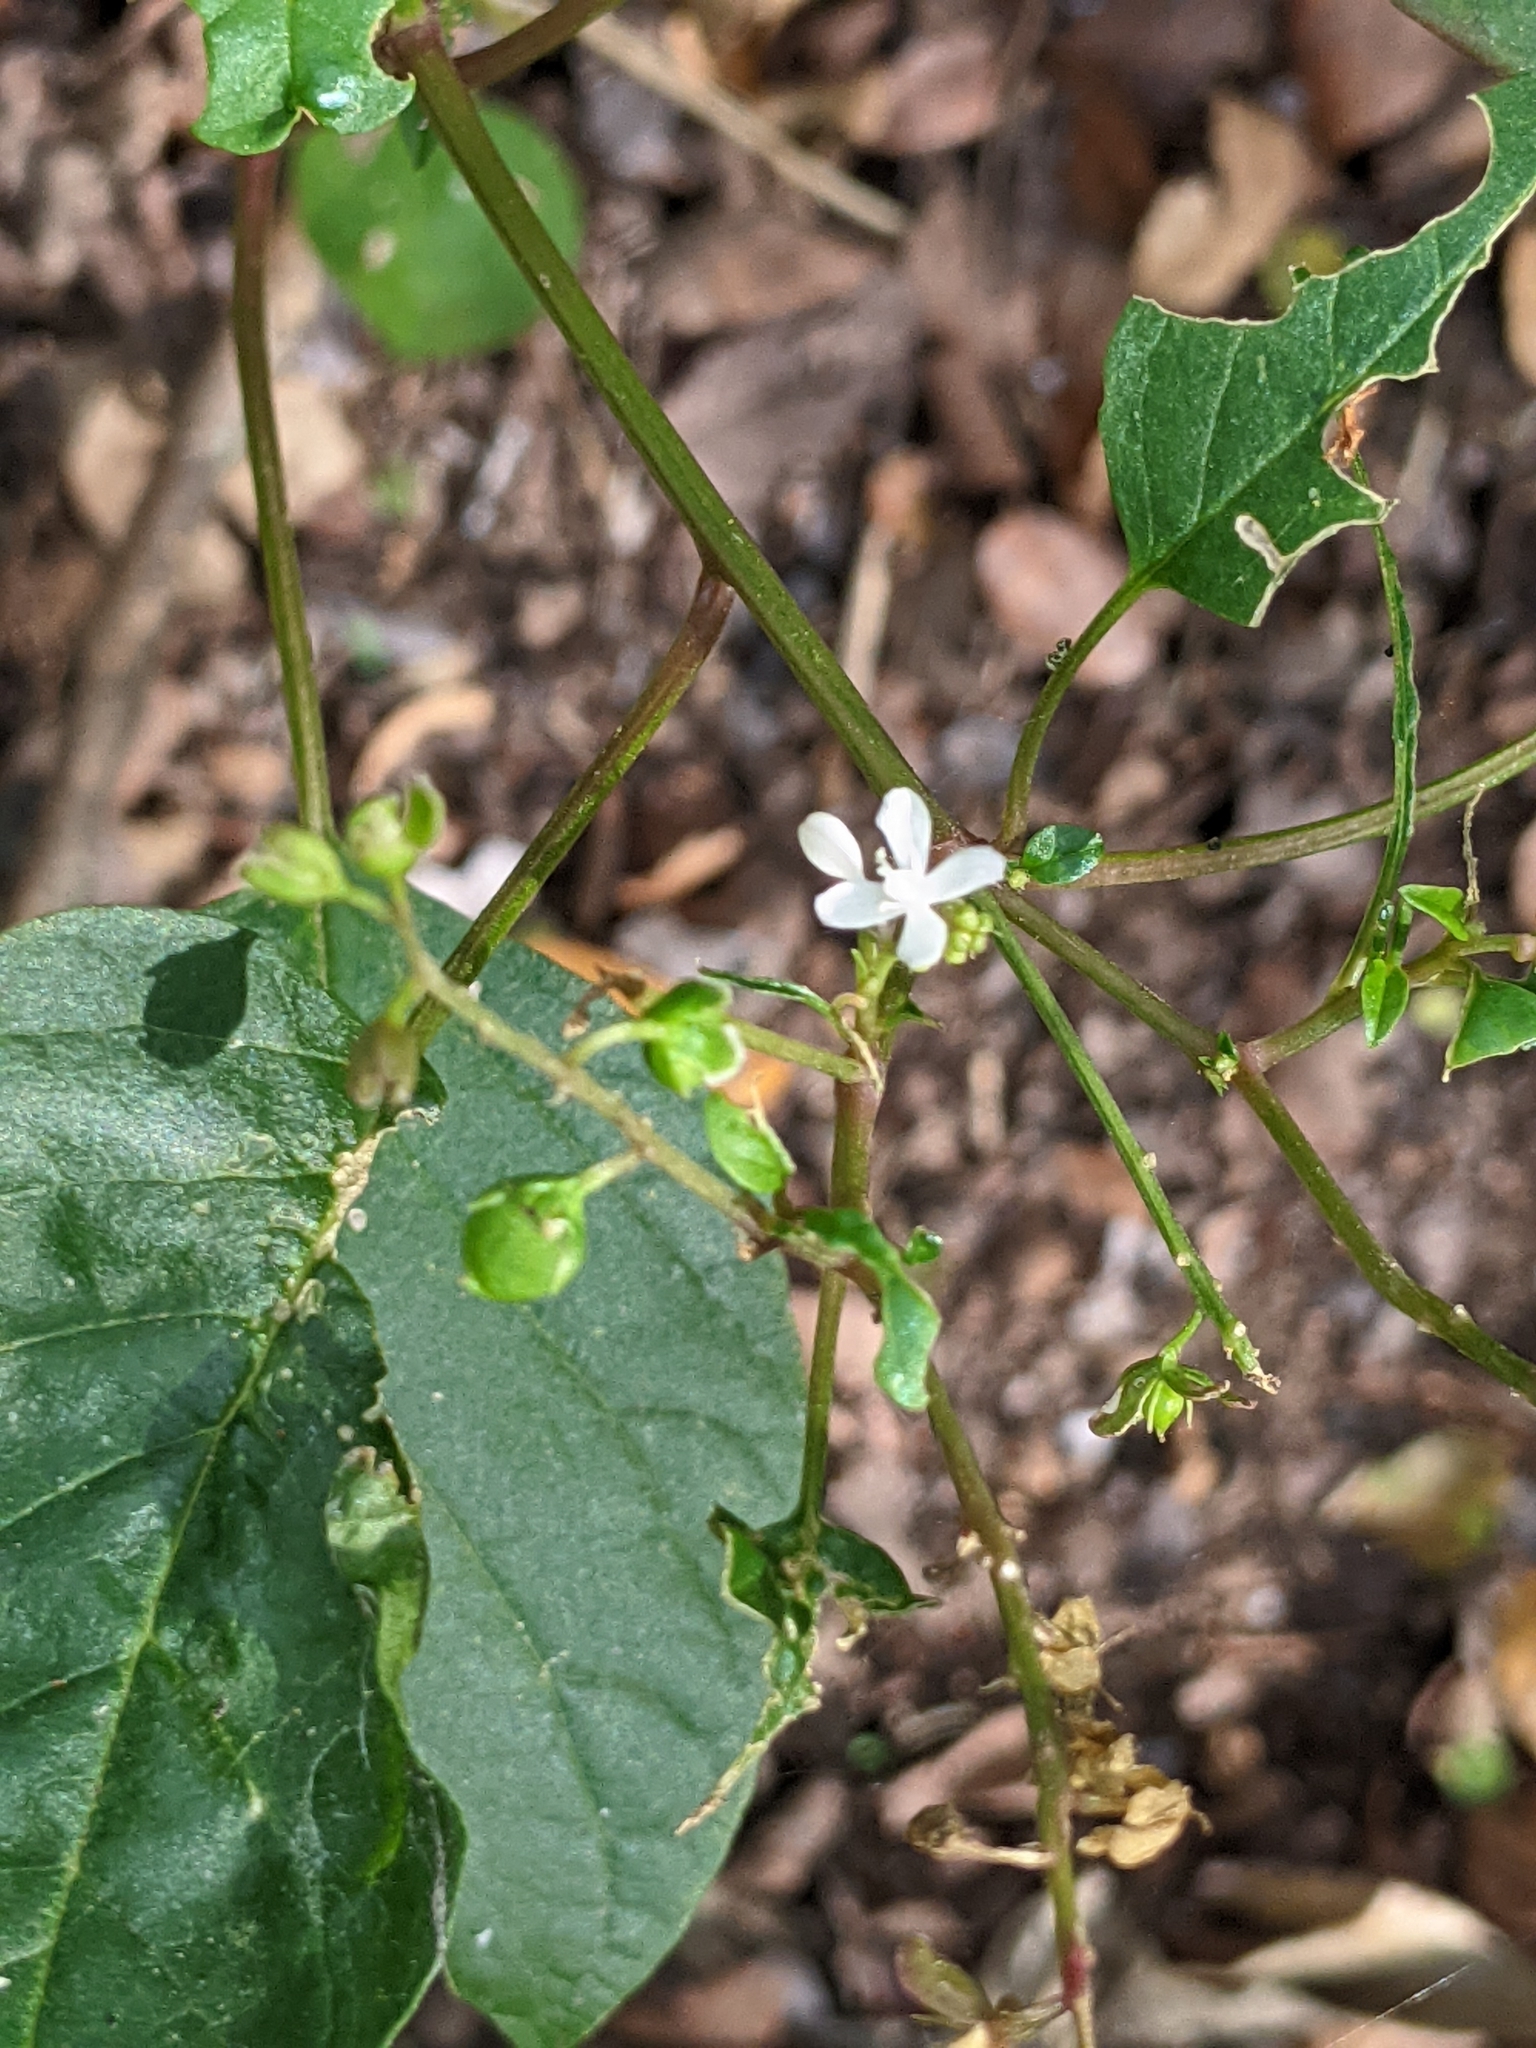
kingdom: Plantae
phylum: Tracheophyta
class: Magnoliopsida
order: Caryophyllales
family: Phytolaccaceae
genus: Rivina
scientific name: Rivina humilis
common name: Rougeplant
